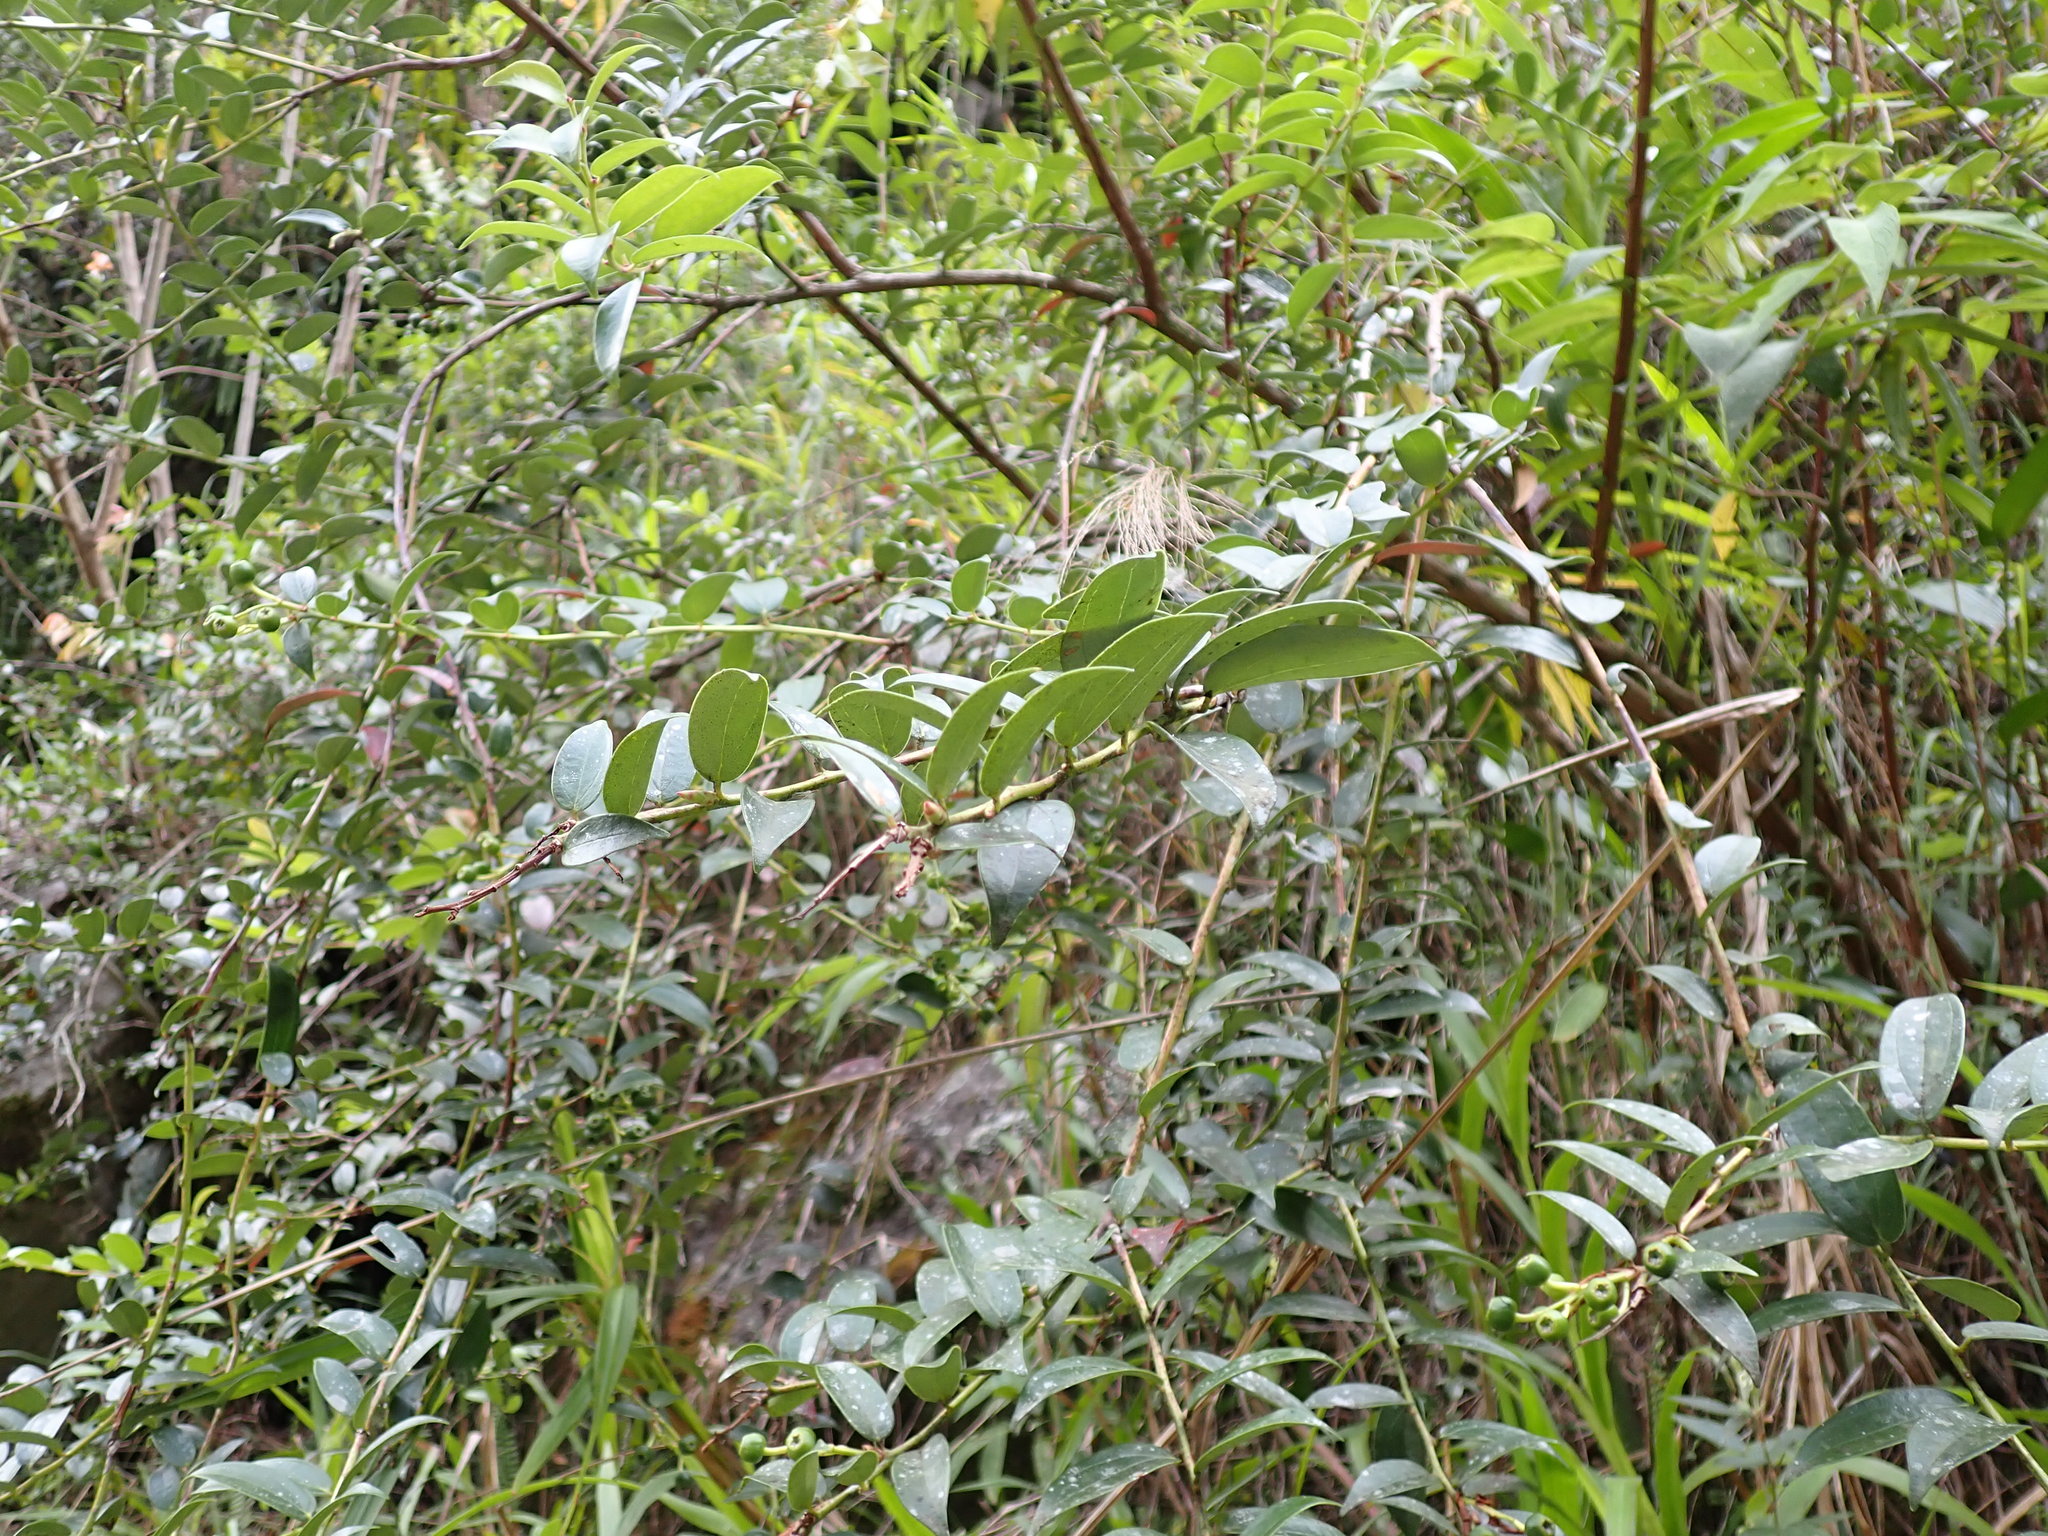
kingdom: Plantae
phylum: Tracheophyta
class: Magnoliopsida
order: Ericales
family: Ericaceae
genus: Cavendishia
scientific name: Cavendishia bracteata
